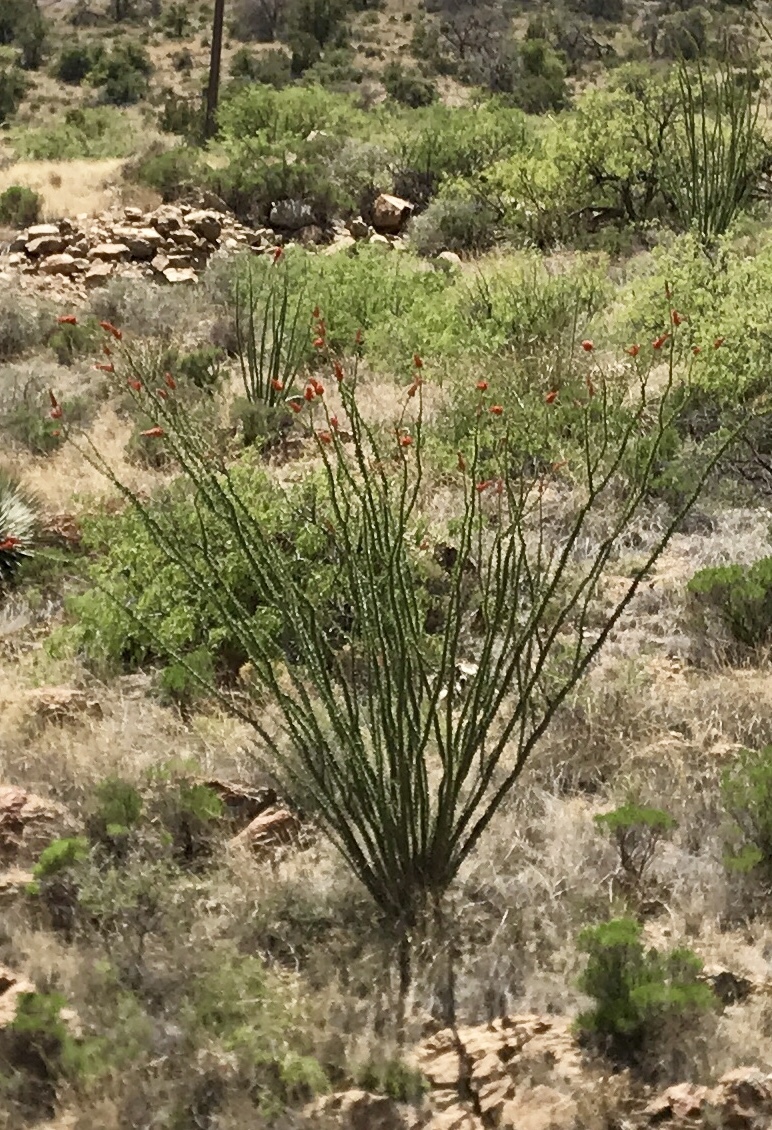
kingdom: Plantae
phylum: Tracheophyta
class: Magnoliopsida
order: Ericales
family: Fouquieriaceae
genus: Fouquieria
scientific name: Fouquieria splendens
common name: Vine-cactus
